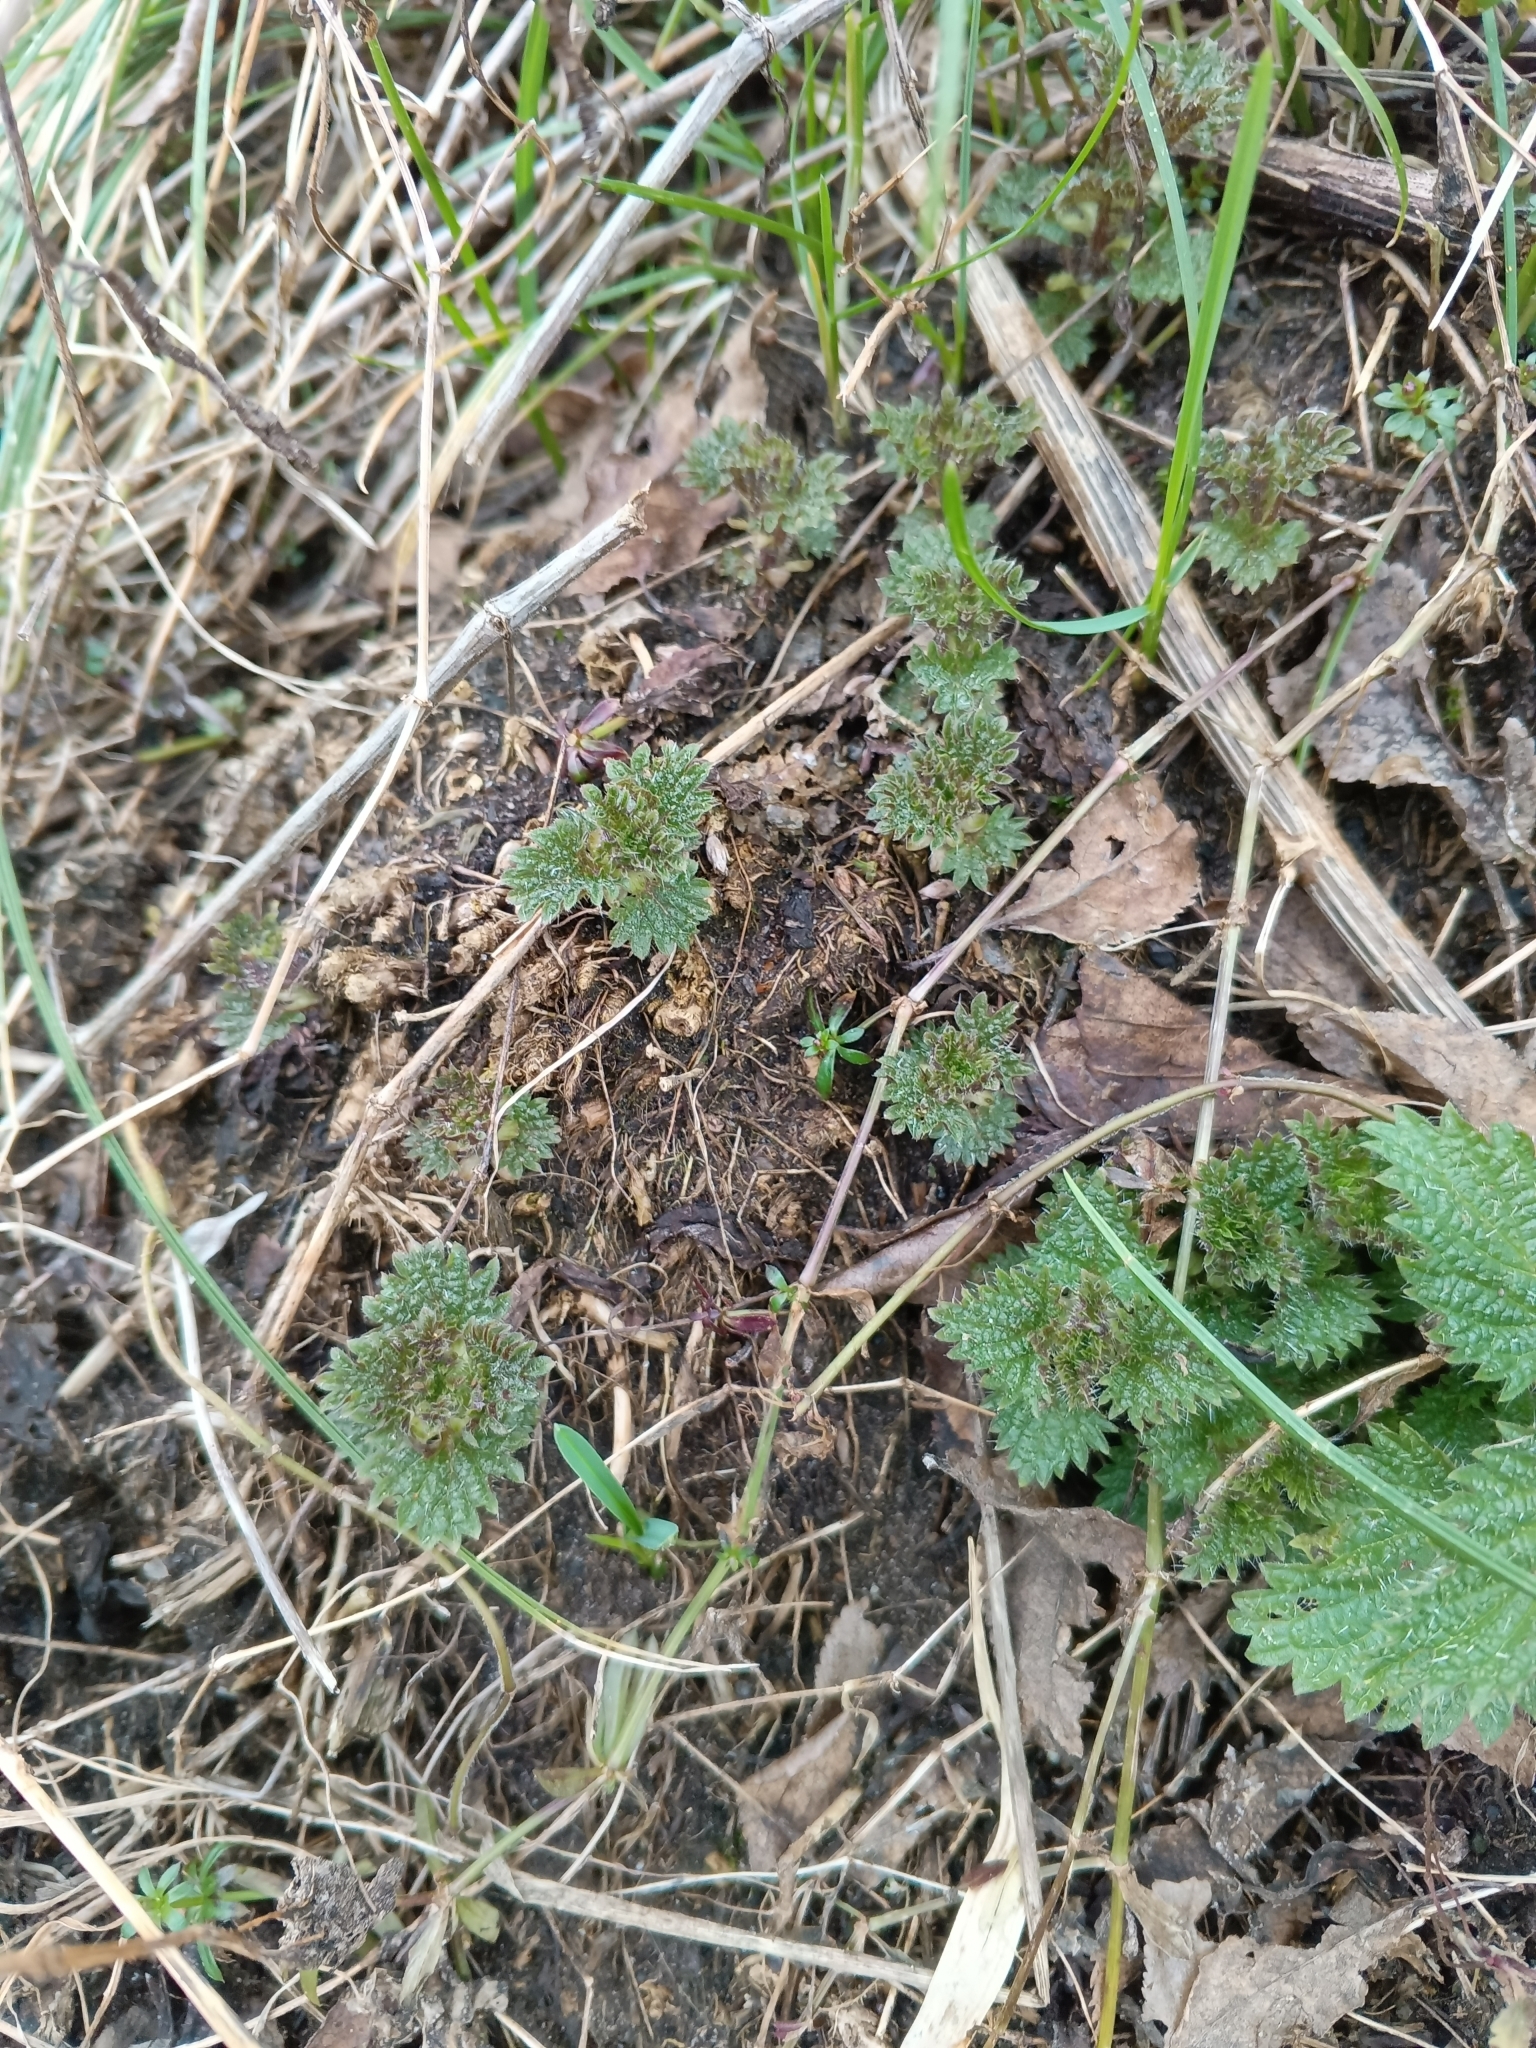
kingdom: Plantae
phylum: Tracheophyta
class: Magnoliopsida
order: Rosales
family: Urticaceae
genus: Urtica
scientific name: Urtica dioica
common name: Common nettle
